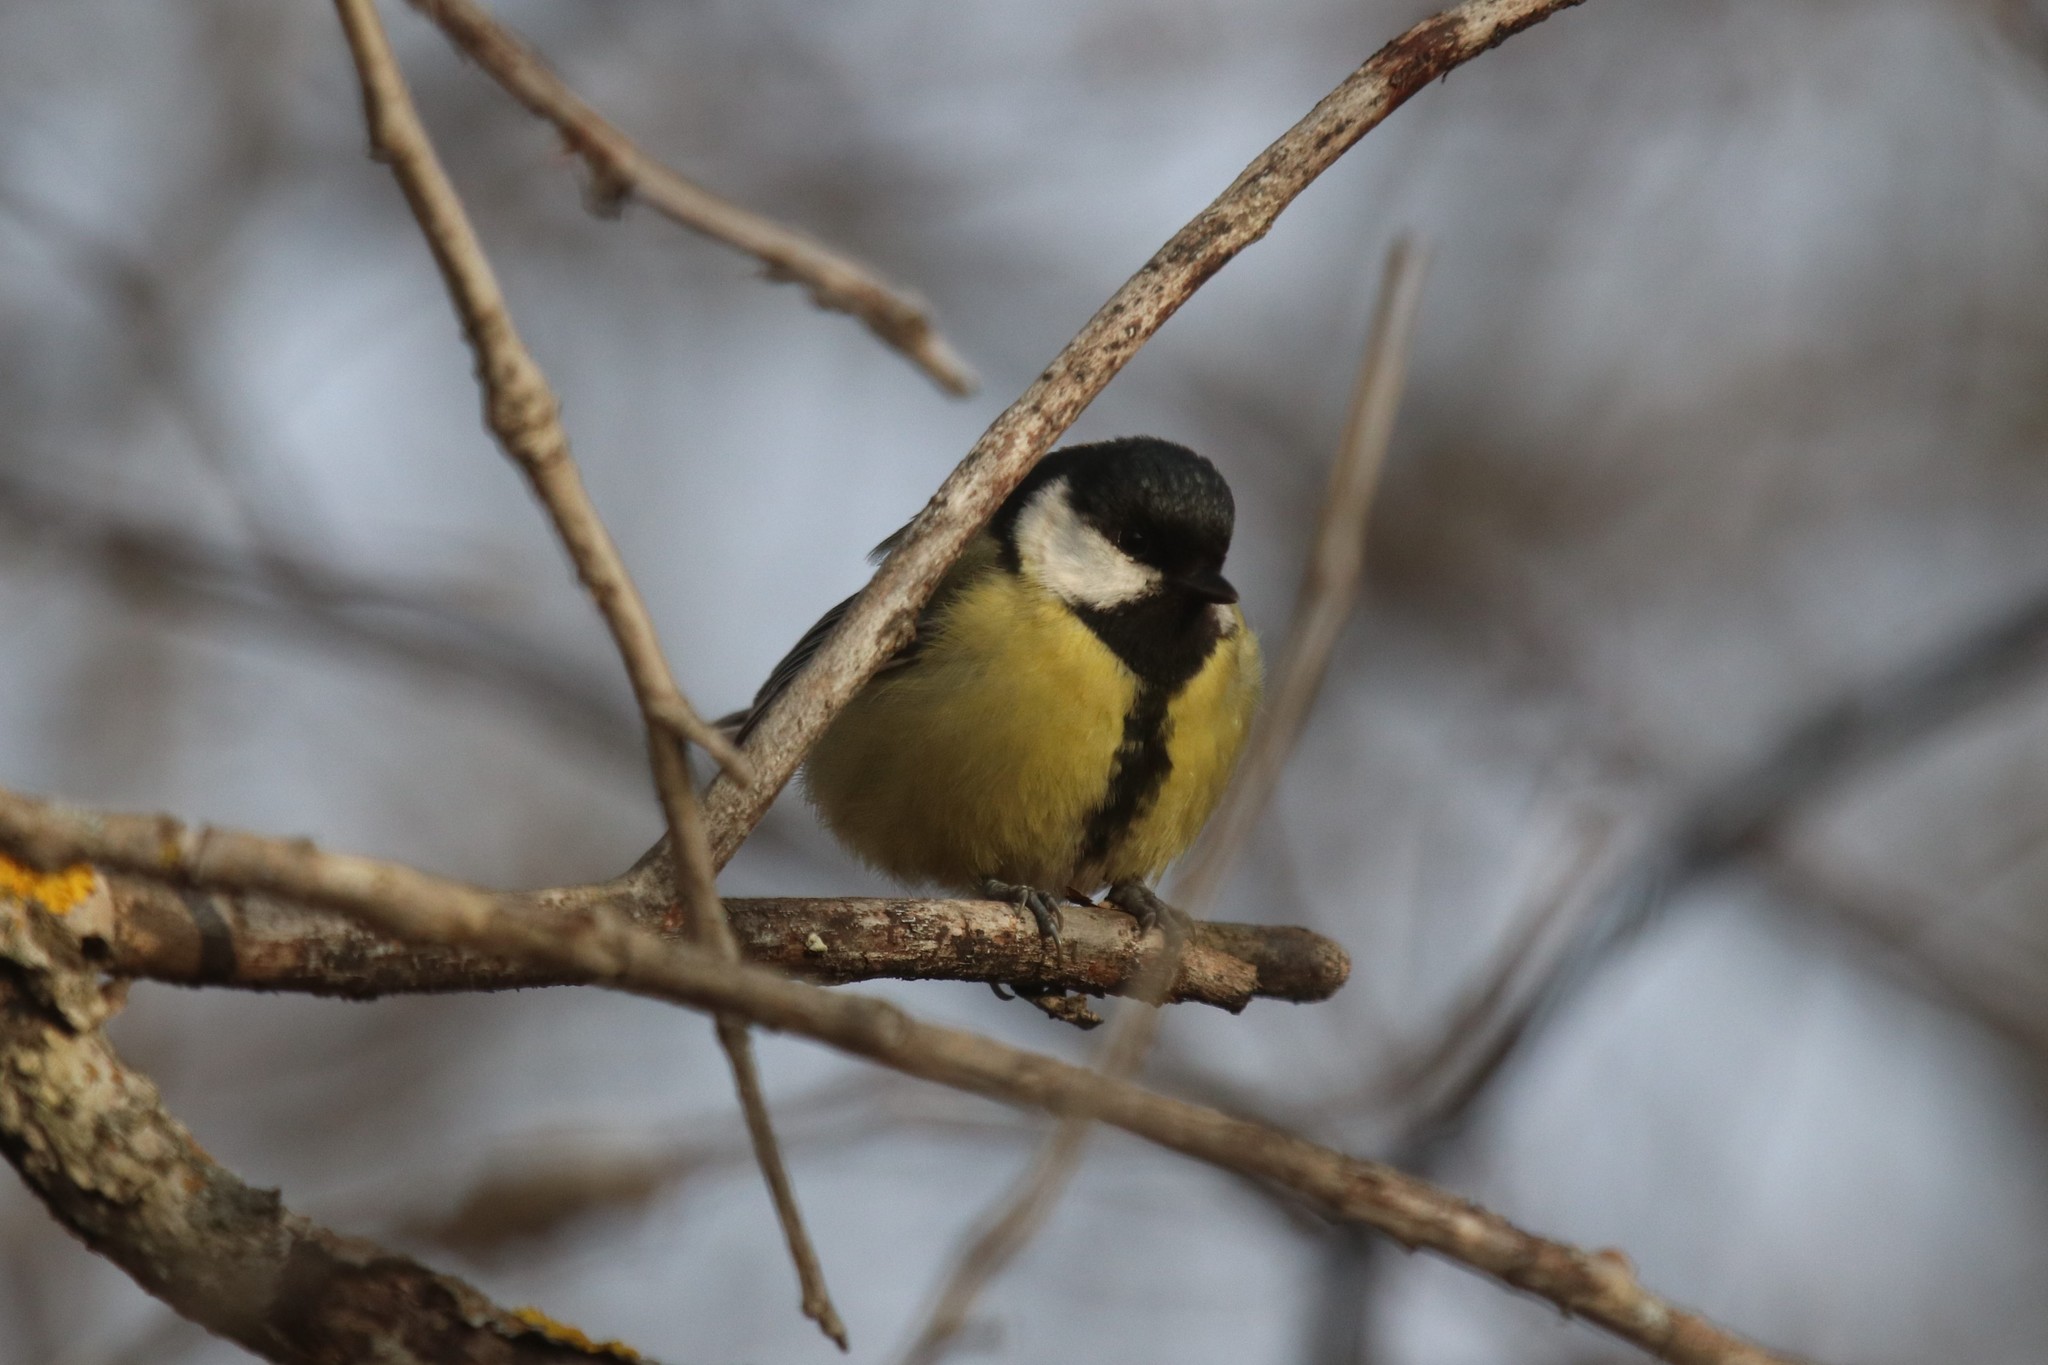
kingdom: Animalia
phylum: Chordata
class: Aves
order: Passeriformes
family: Paridae
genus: Parus
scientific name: Parus major
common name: Great tit
